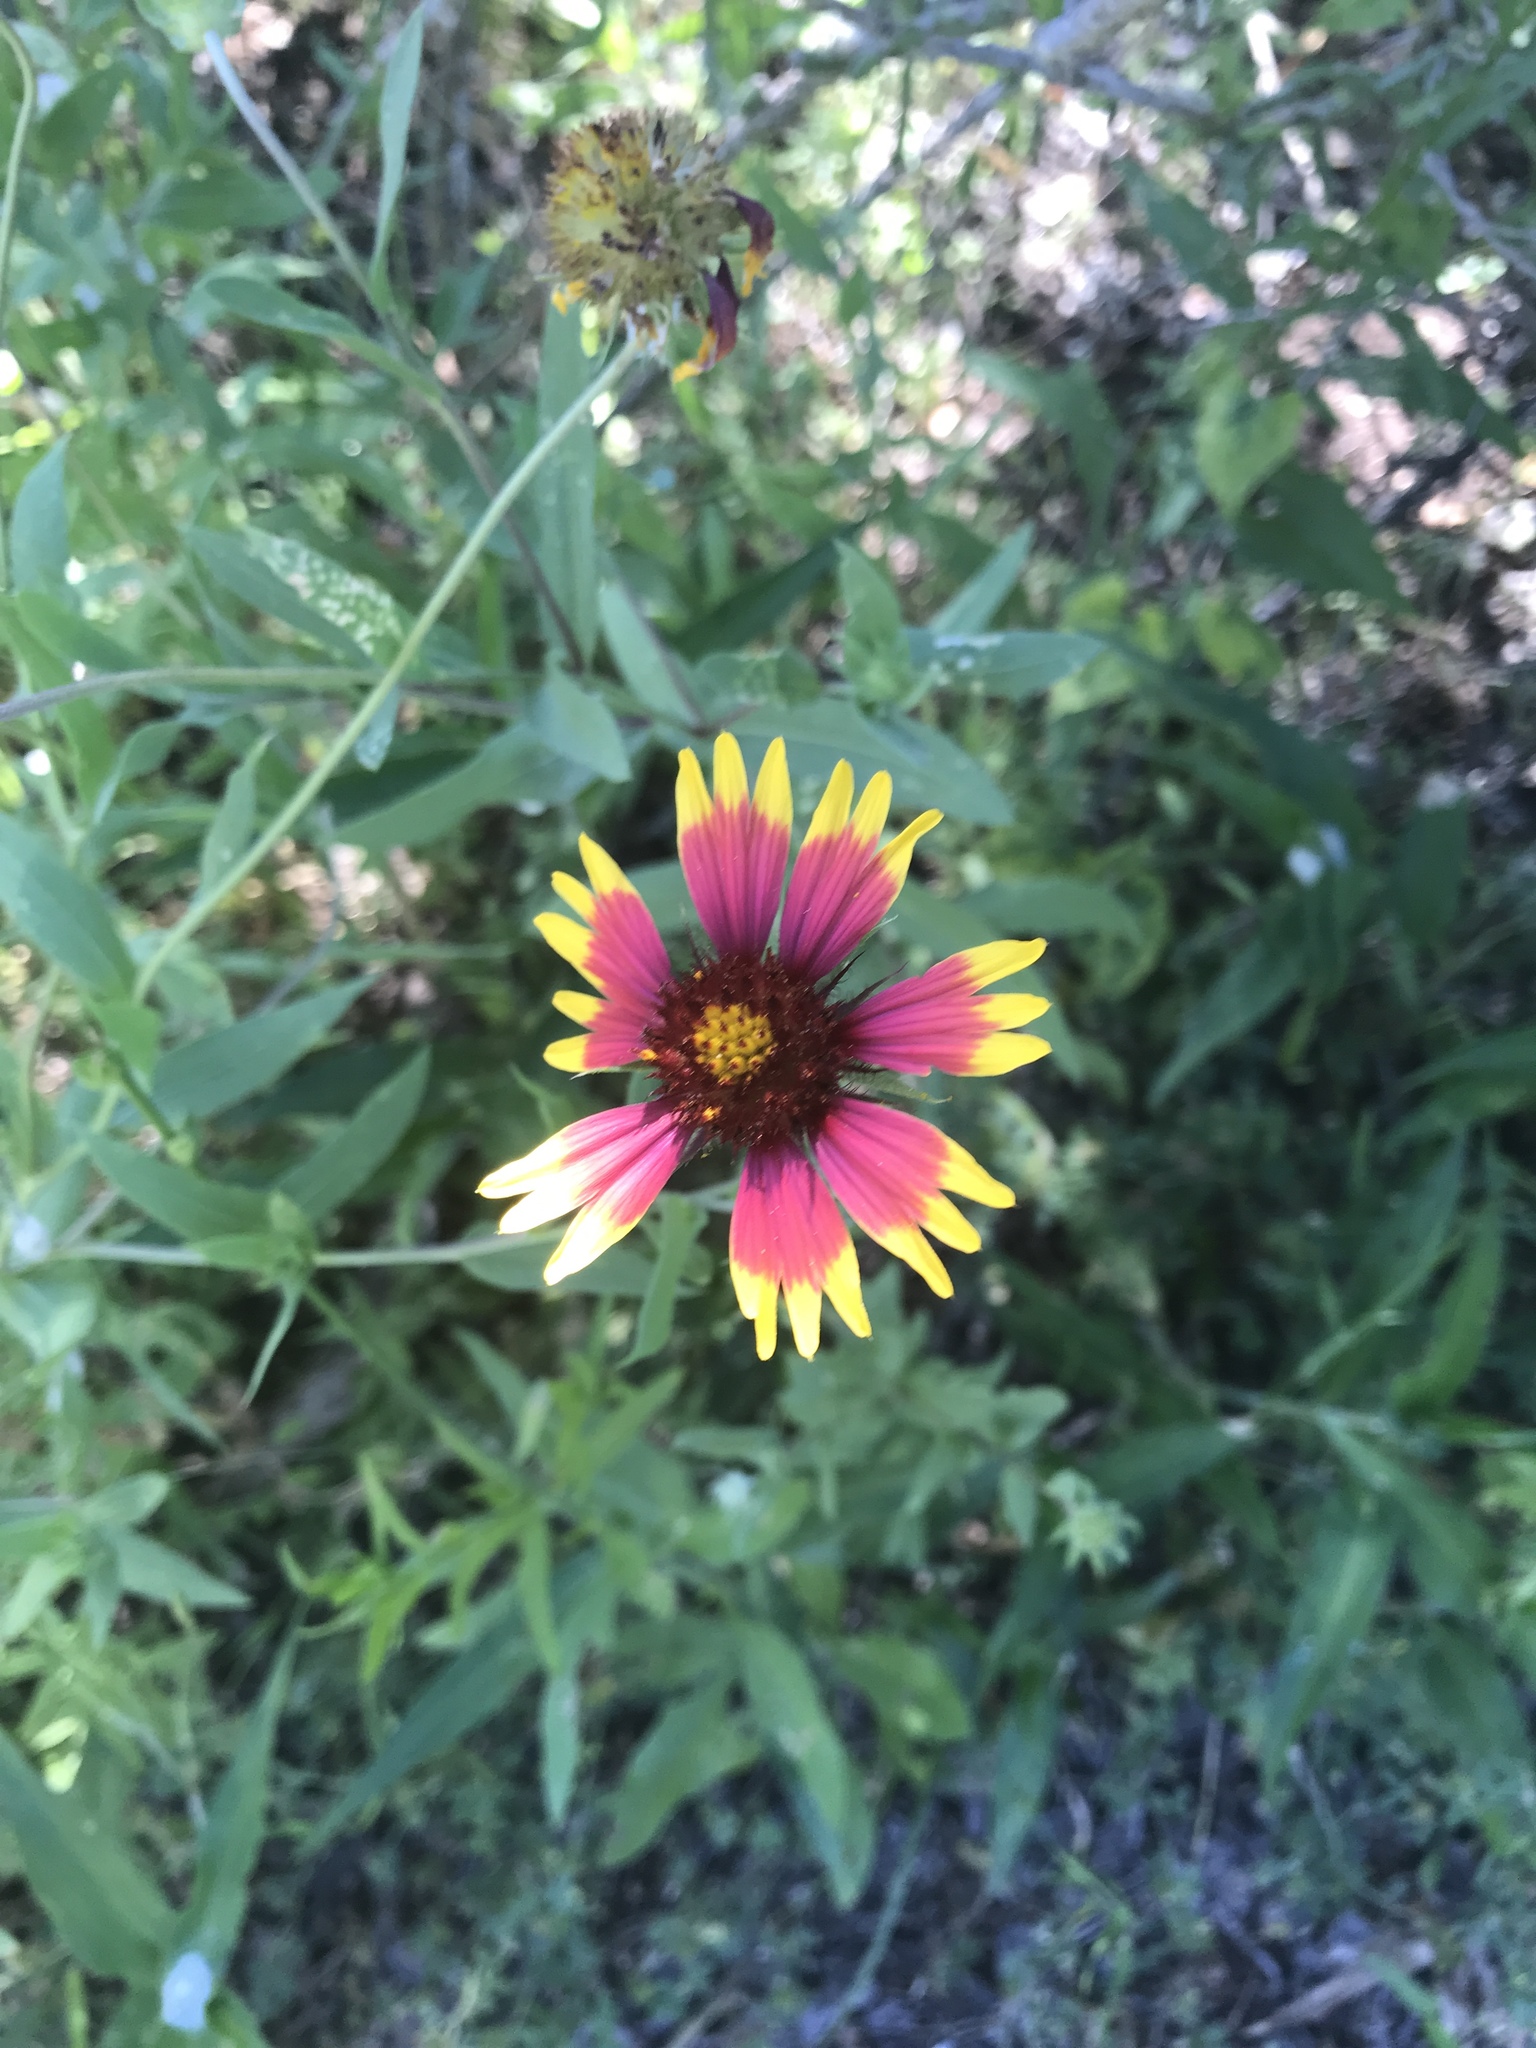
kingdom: Plantae
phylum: Tracheophyta
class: Magnoliopsida
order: Asterales
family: Asteraceae
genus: Gaillardia
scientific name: Gaillardia pulchella
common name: Firewheel
